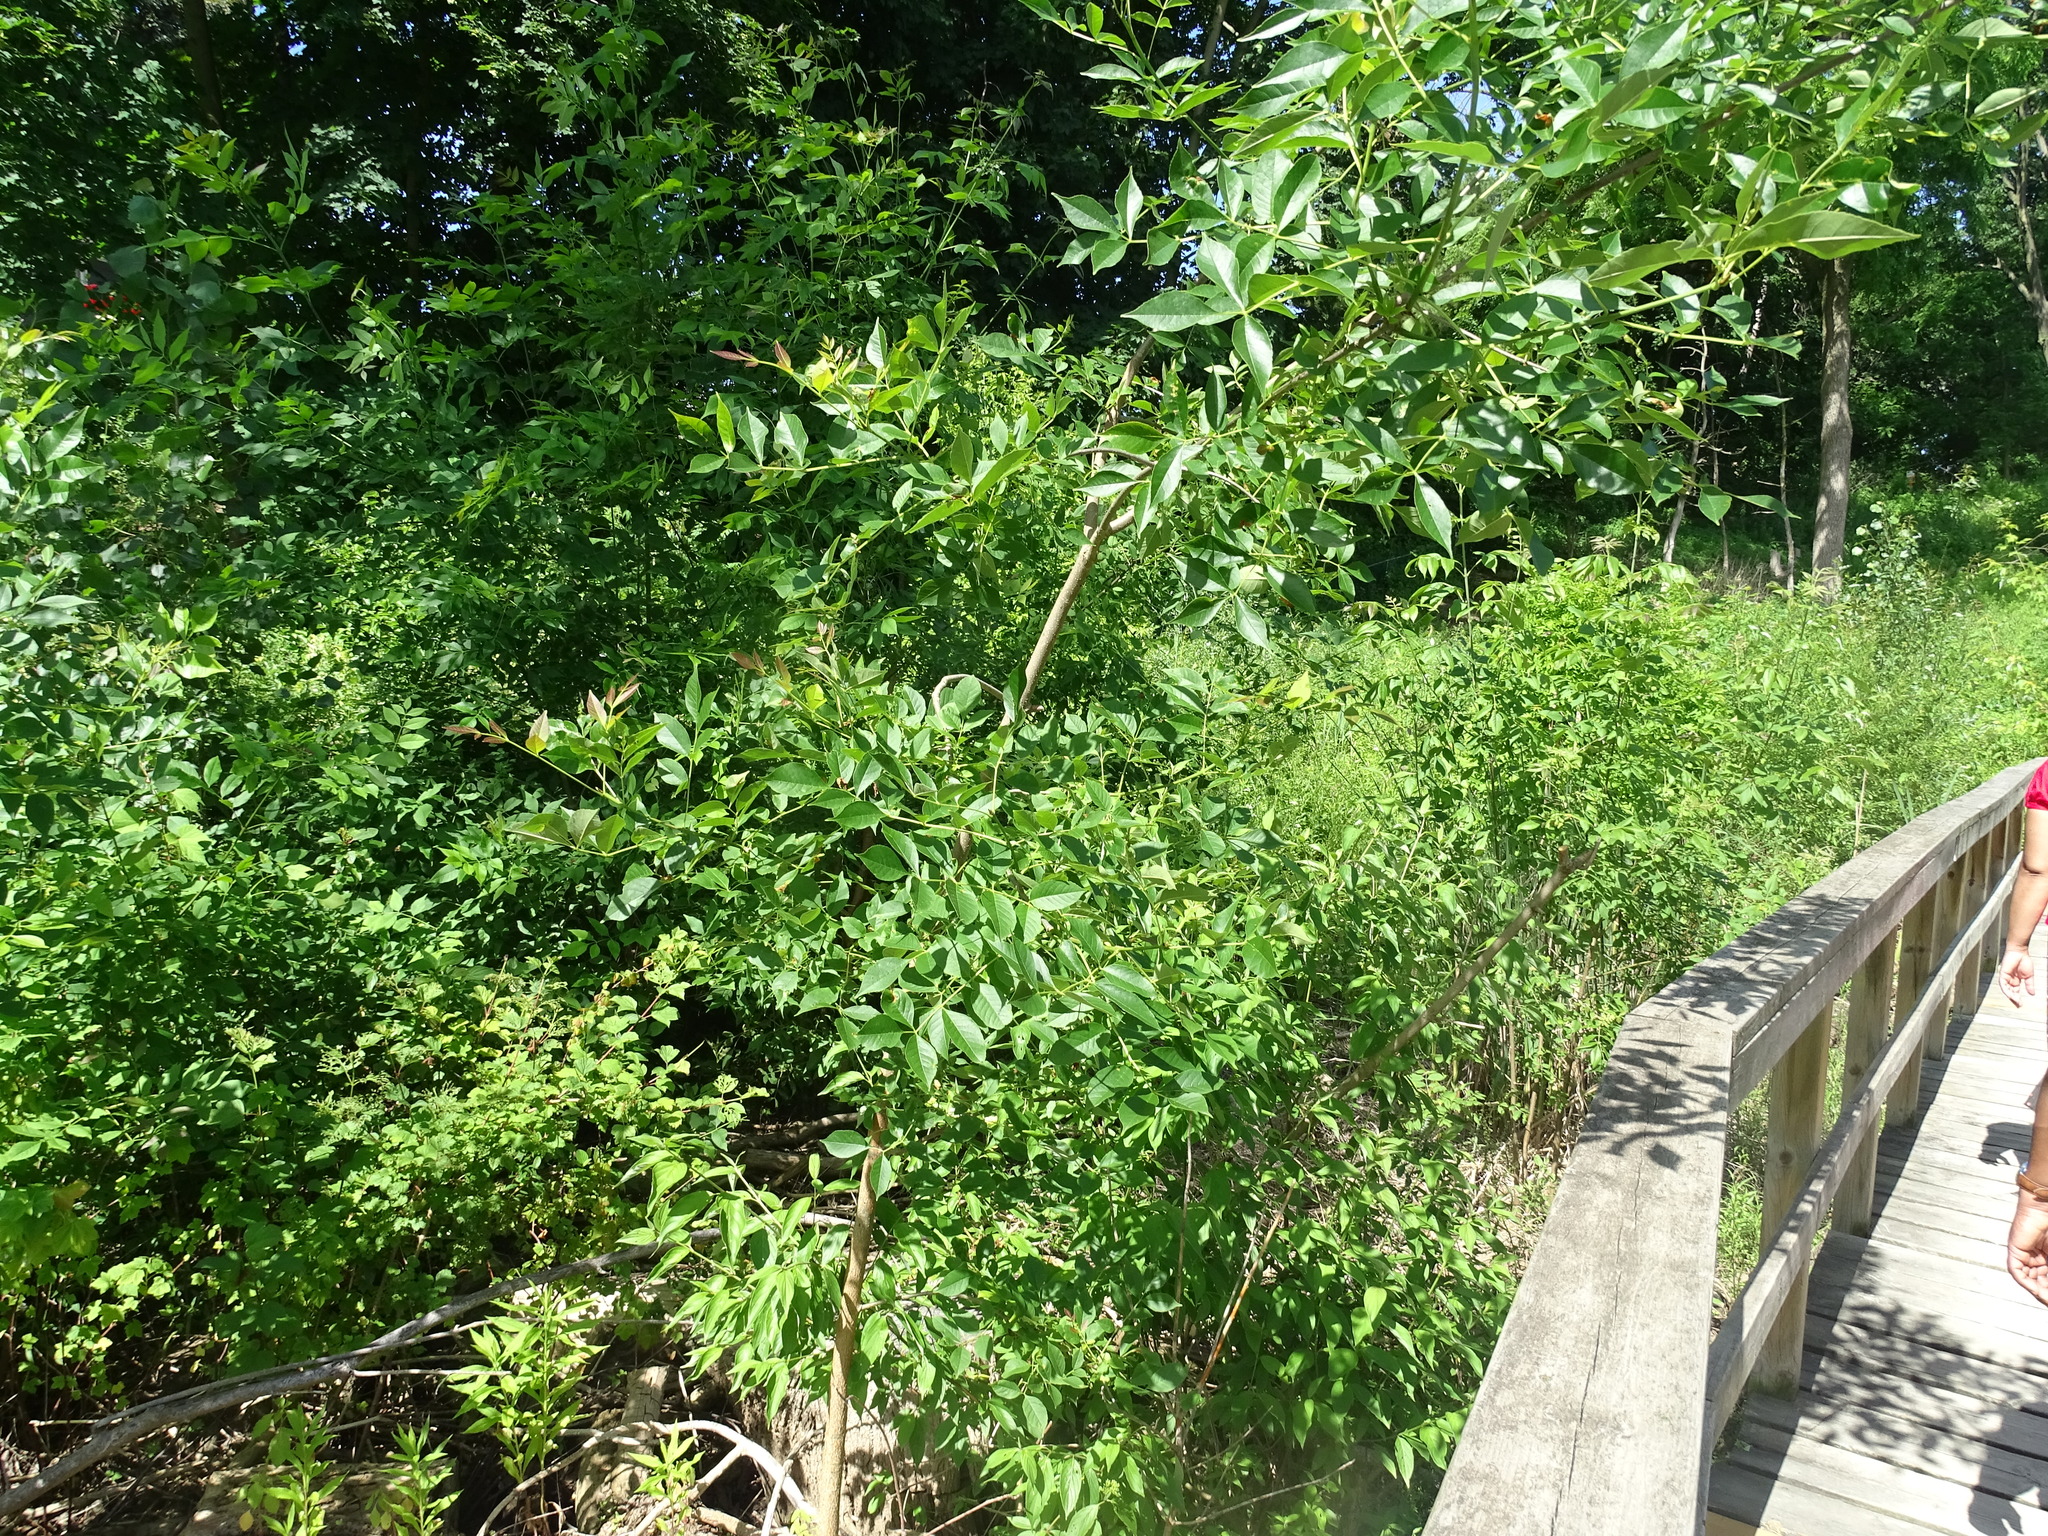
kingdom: Plantae
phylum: Tracheophyta
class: Magnoliopsida
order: Lamiales
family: Oleaceae
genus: Fraxinus
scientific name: Fraxinus excelsior
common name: European ash
